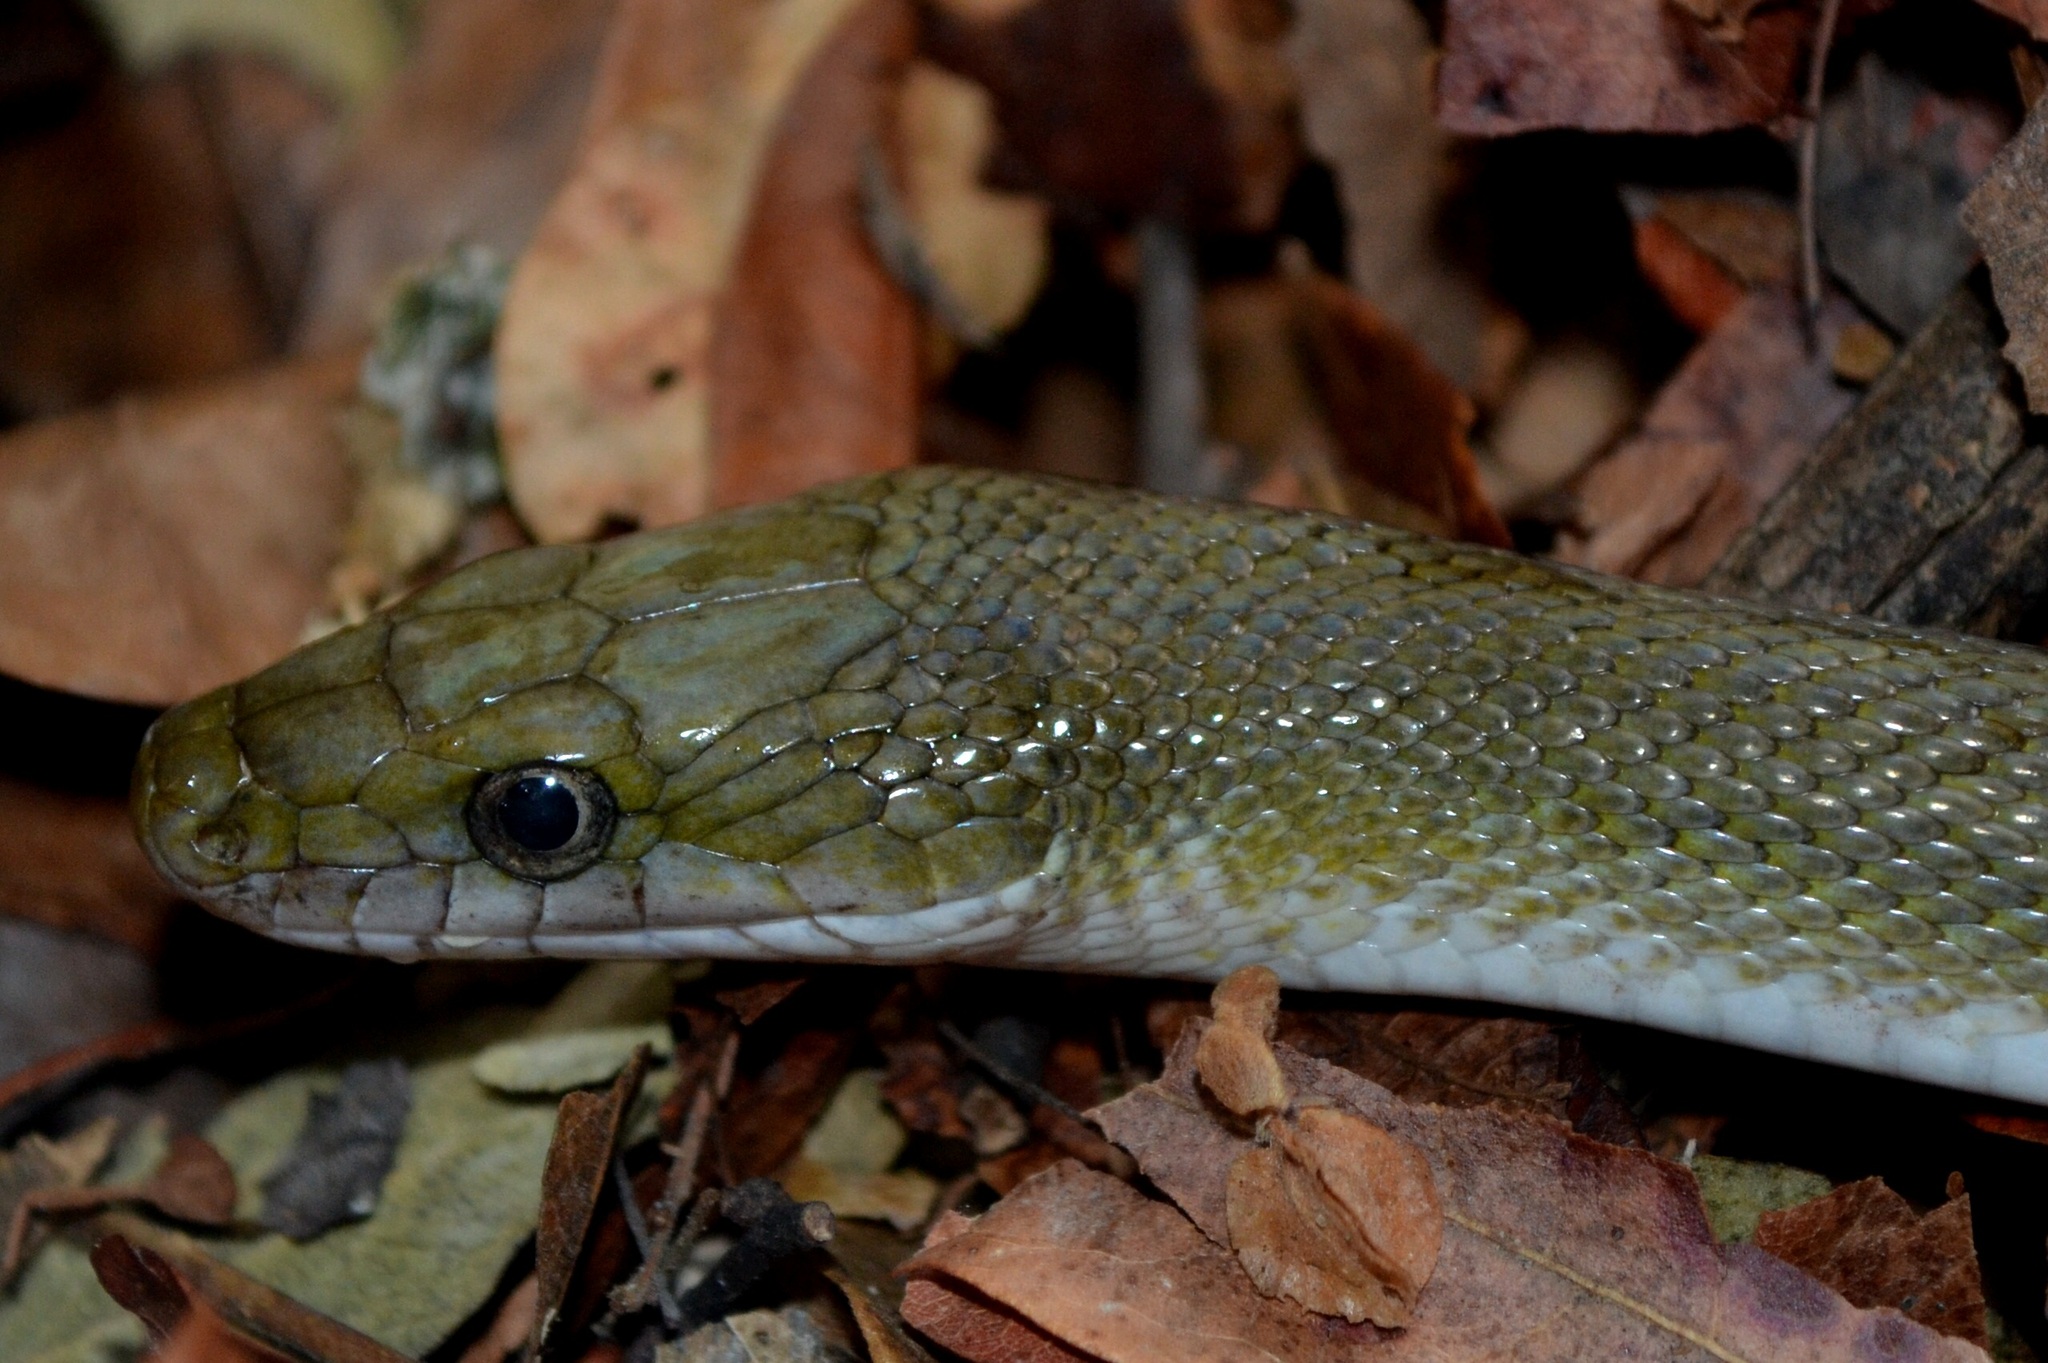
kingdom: Animalia
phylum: Chordata
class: Squamata
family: Colubridae
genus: Senticolis
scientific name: Senticolis triaspis
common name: Green rat snake
